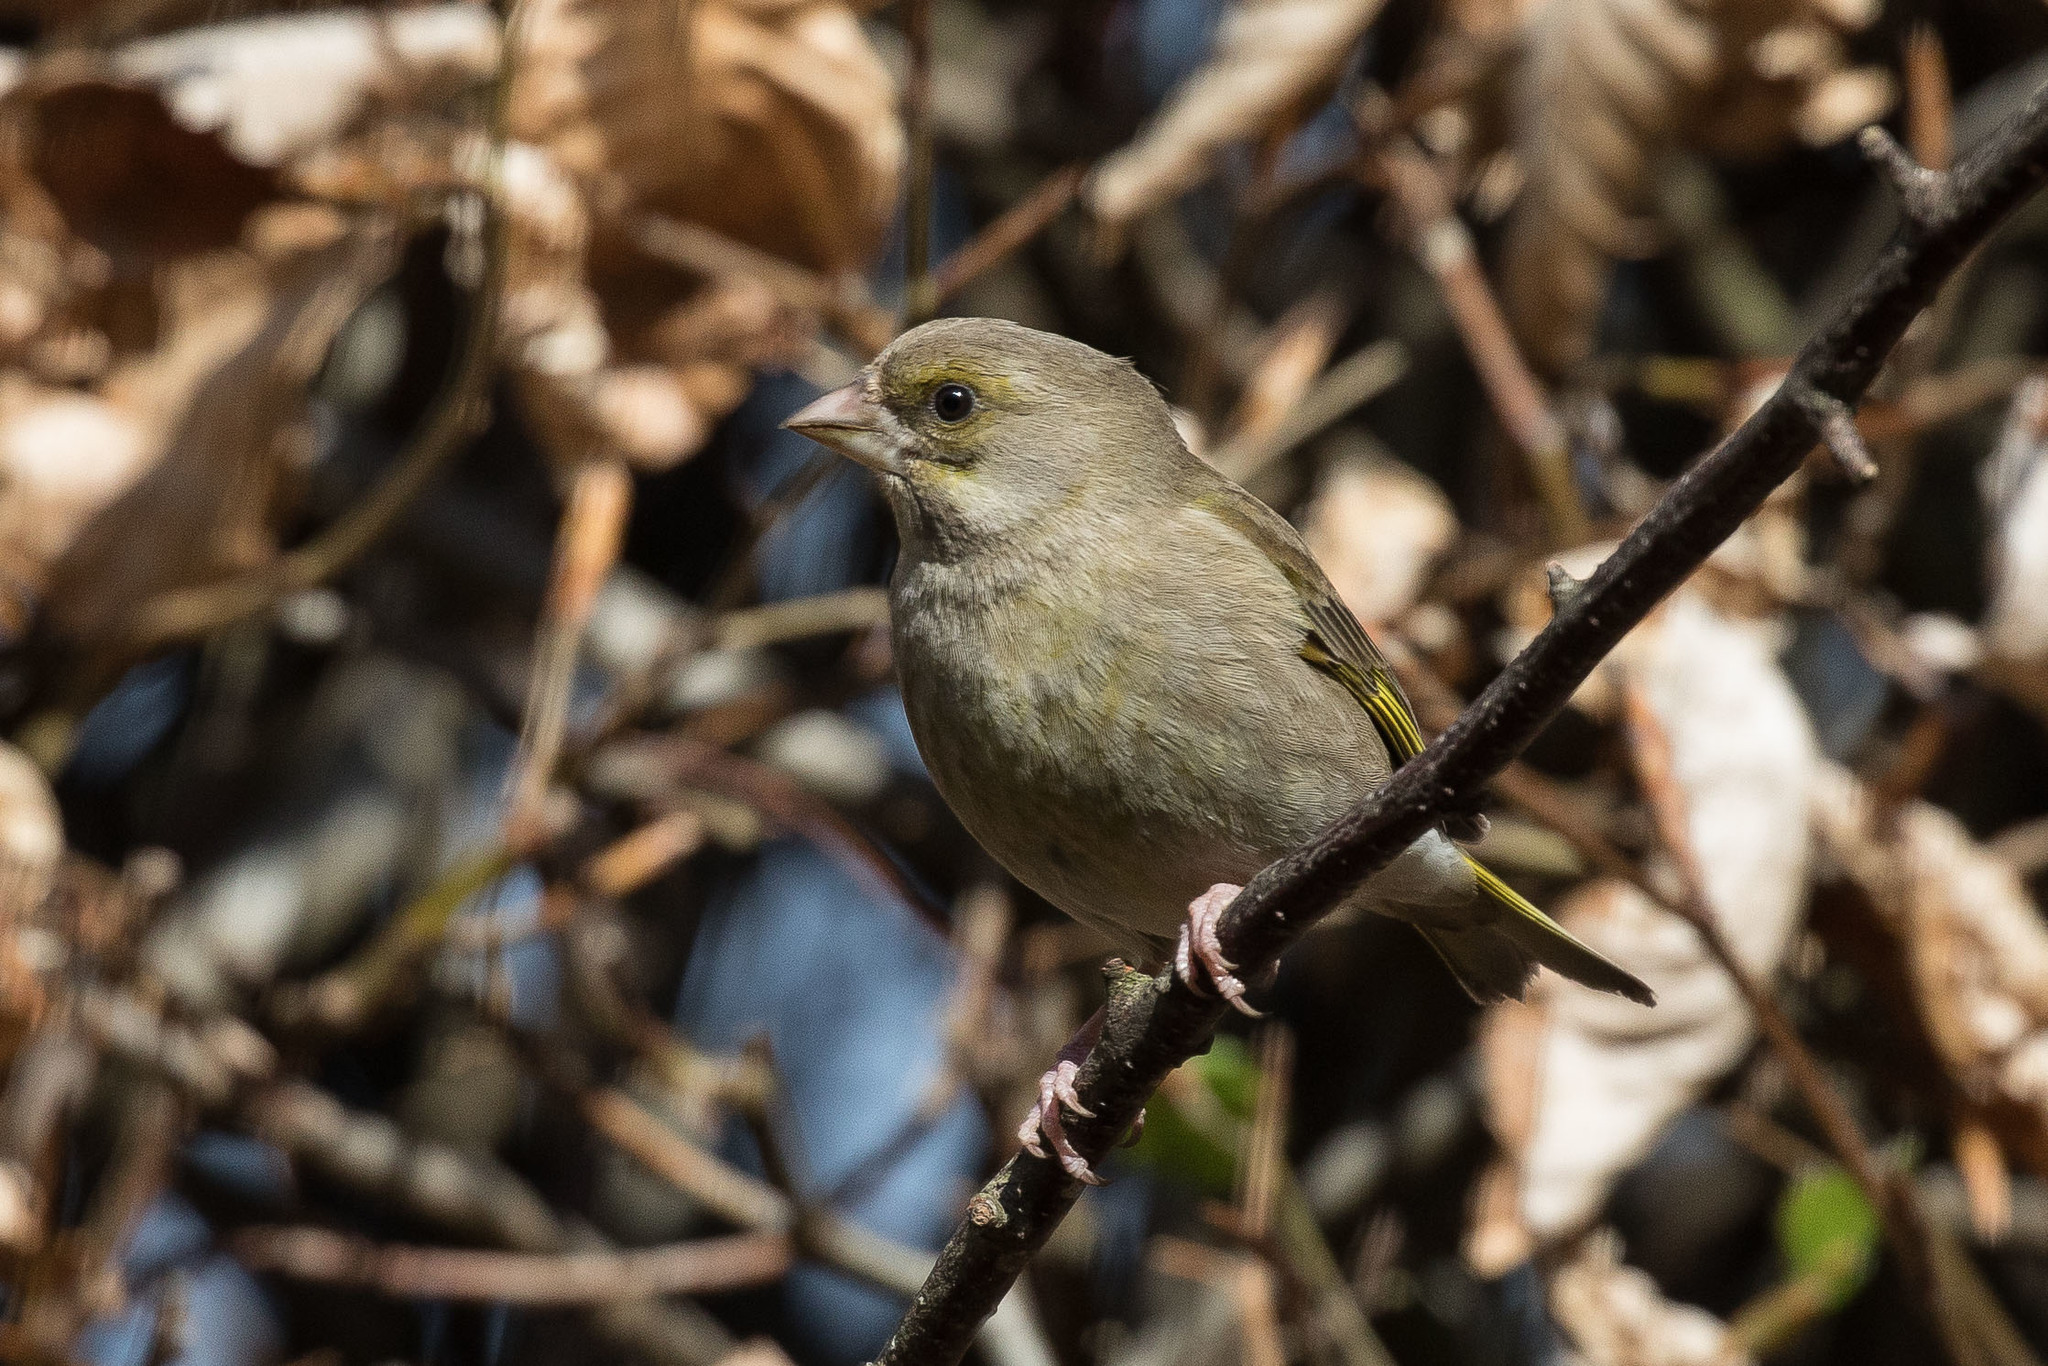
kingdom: Plantae
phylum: Tracheophyta
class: Liliopsida
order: Poales
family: Poaceae
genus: Chloris
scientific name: Chloris chloris
